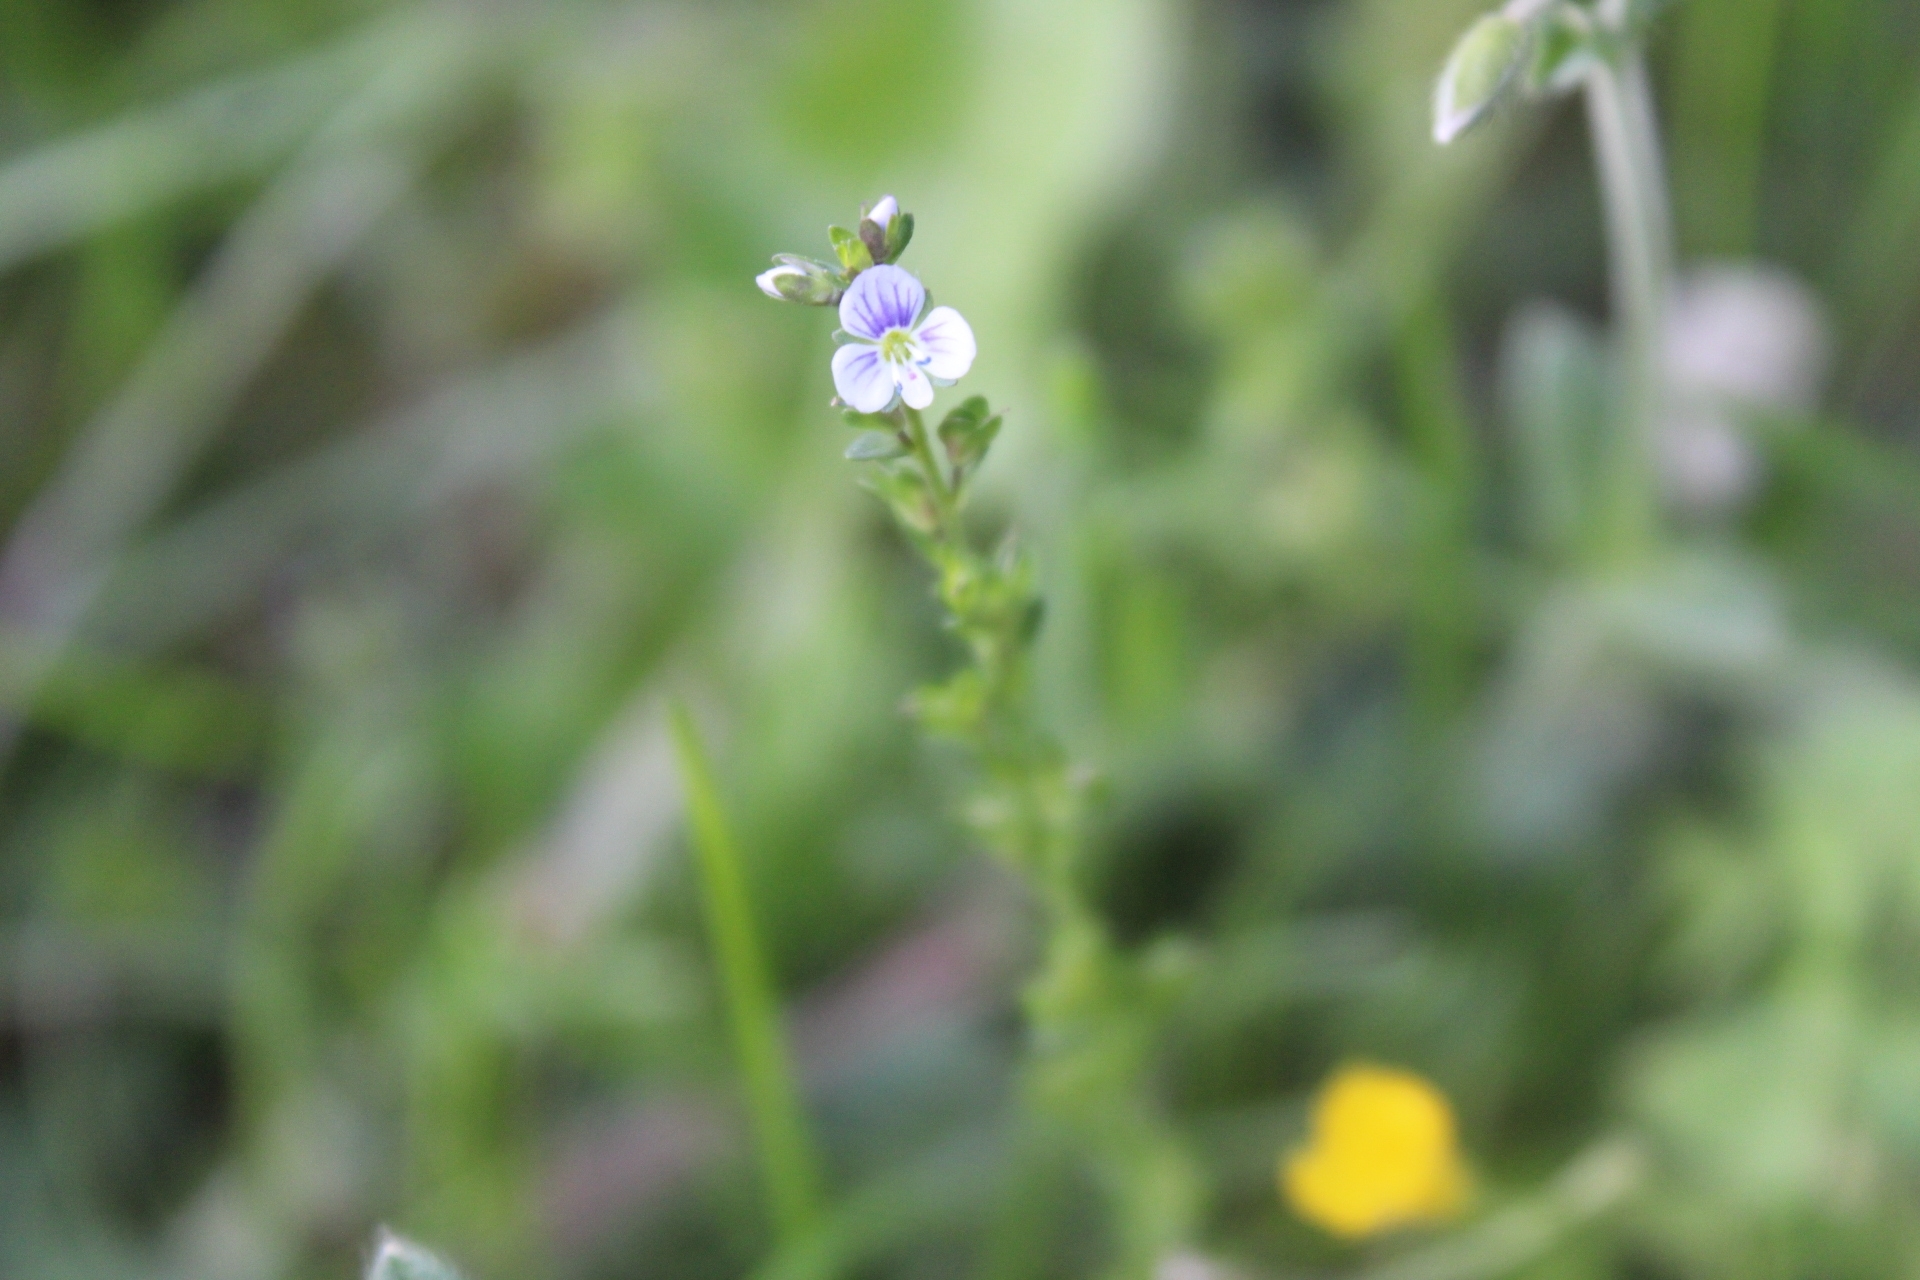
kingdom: Plantae
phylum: Tracheophyta
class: Magnoliopsida
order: Lamiales
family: Plantaginaceae
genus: Veronica
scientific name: Veronica serpyllifolia
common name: Thyme-leaved speedwell
